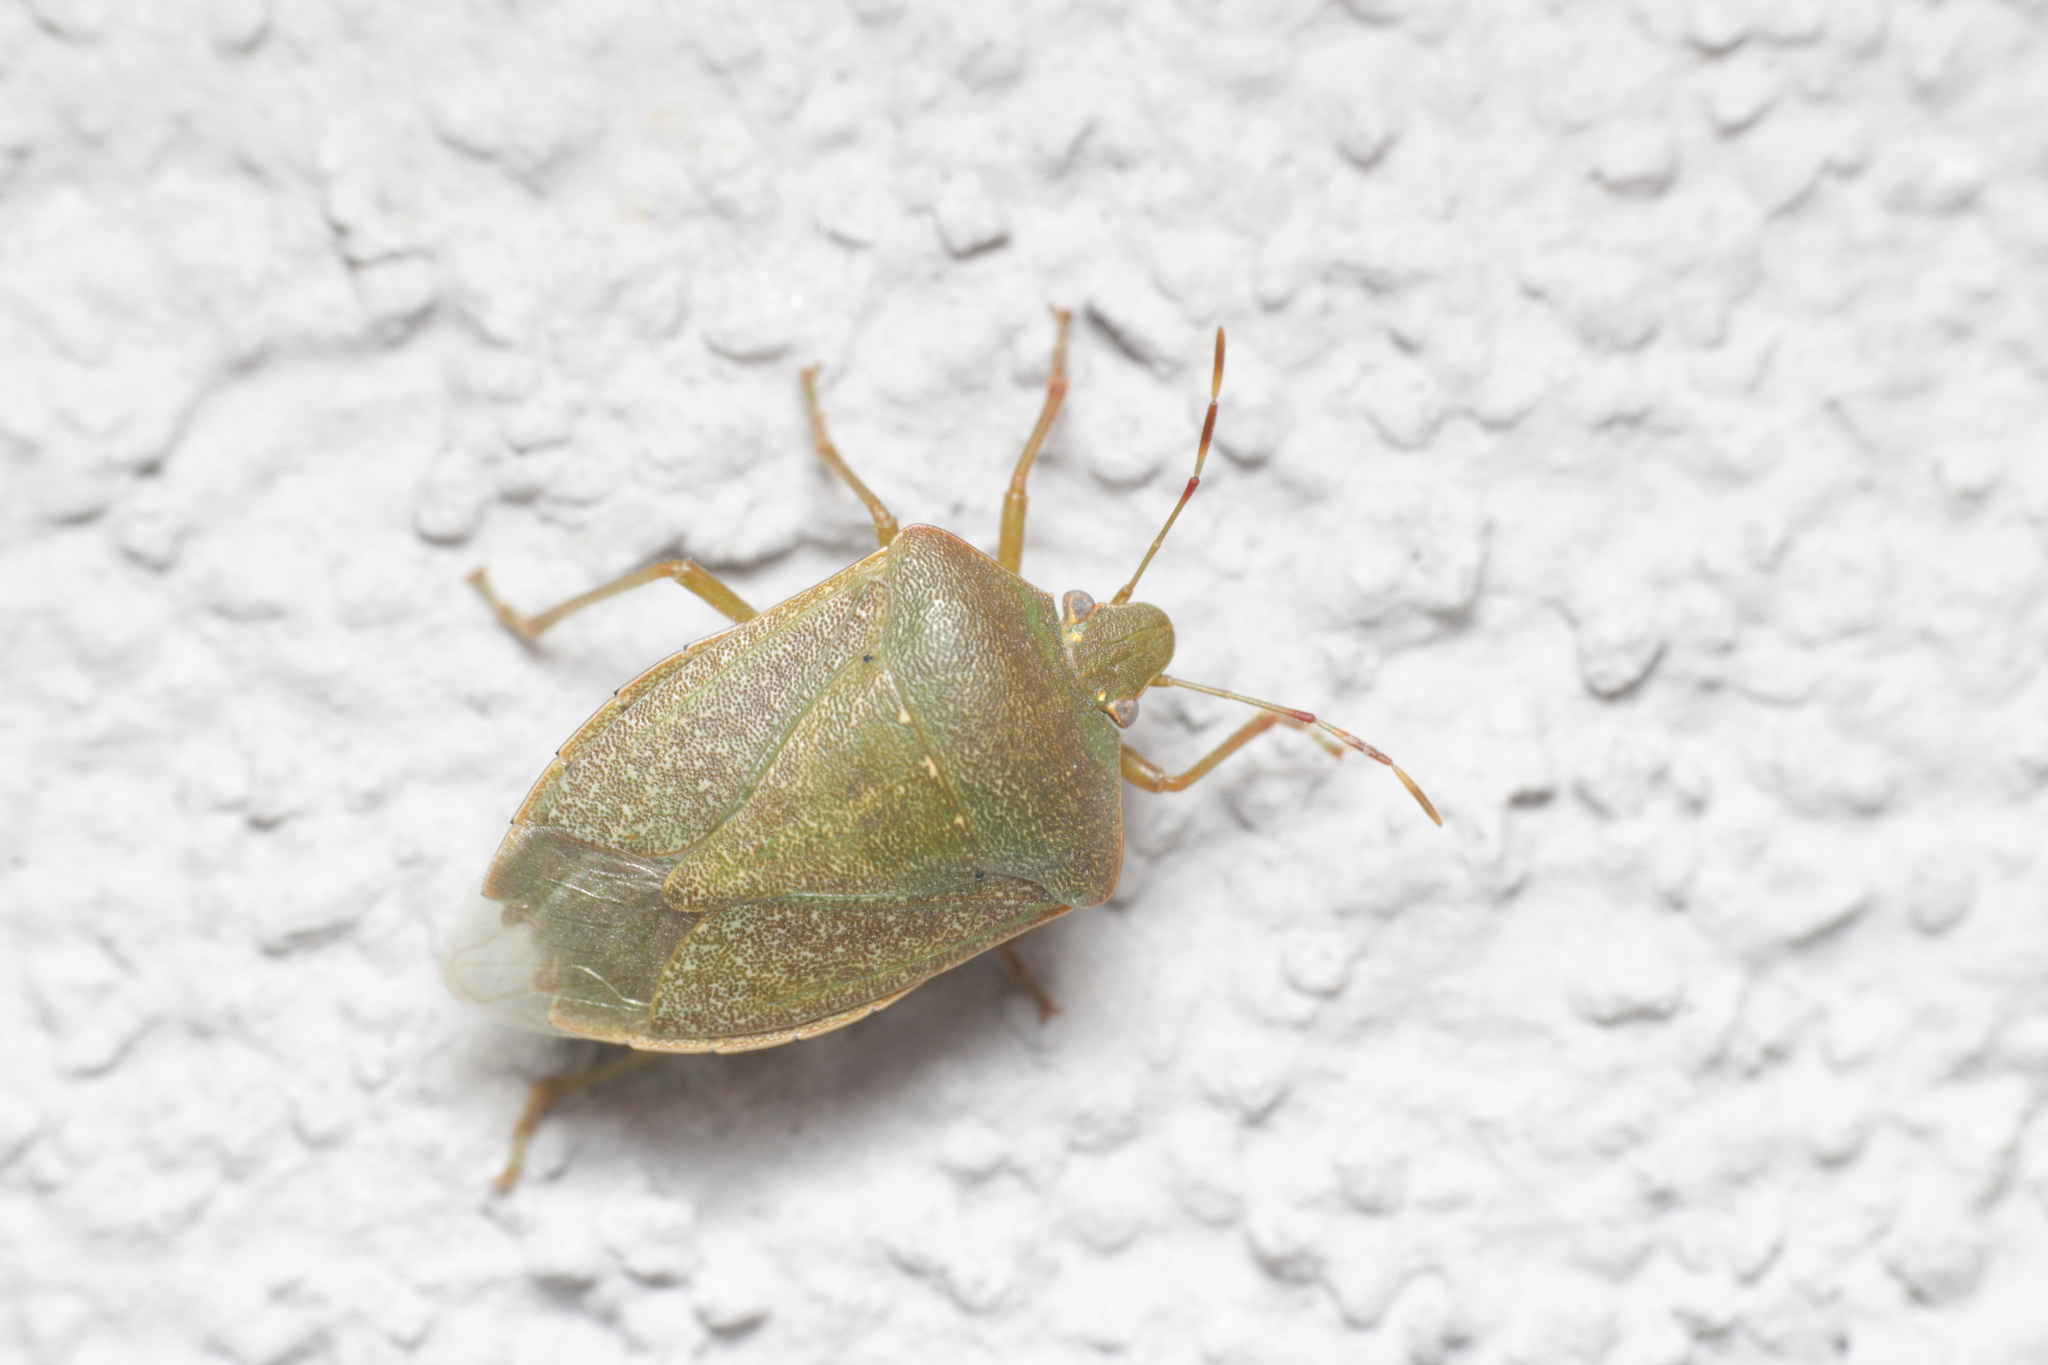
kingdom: Animalia
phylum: Arthropoda
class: Insecta
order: Hemiptera
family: Pentatomidae
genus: Nezara
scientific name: Nezara viridula
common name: Southern green stink bug
